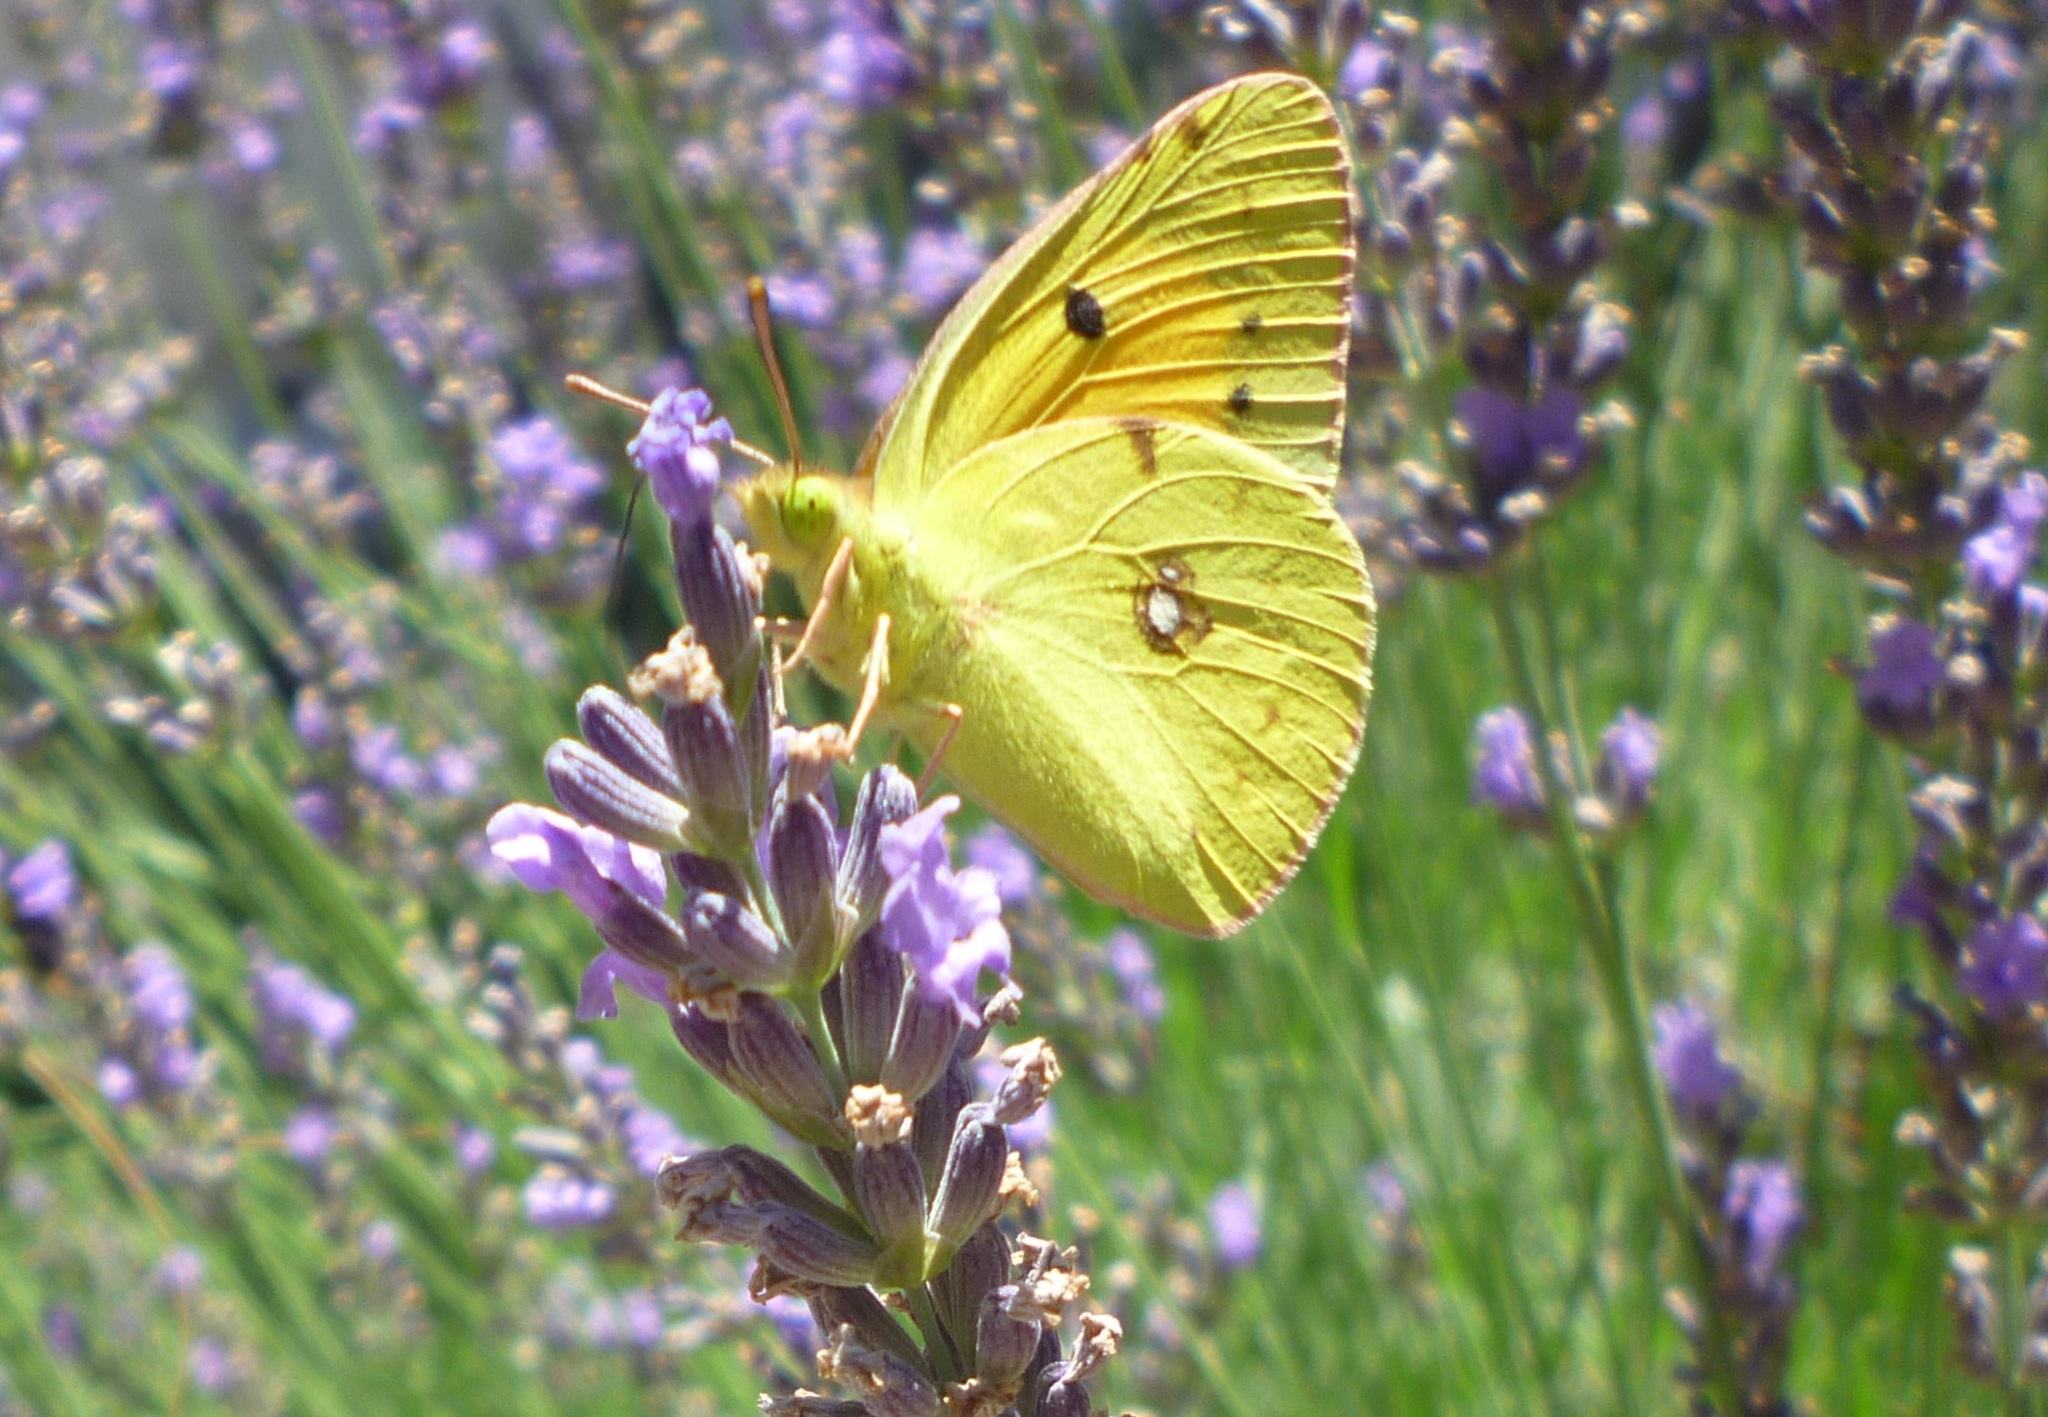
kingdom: Animalia
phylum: Arthropoda
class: Insecta
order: Lepidoptera
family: Pieridae
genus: Colias
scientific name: Colias croceus
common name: Clouded yellow
